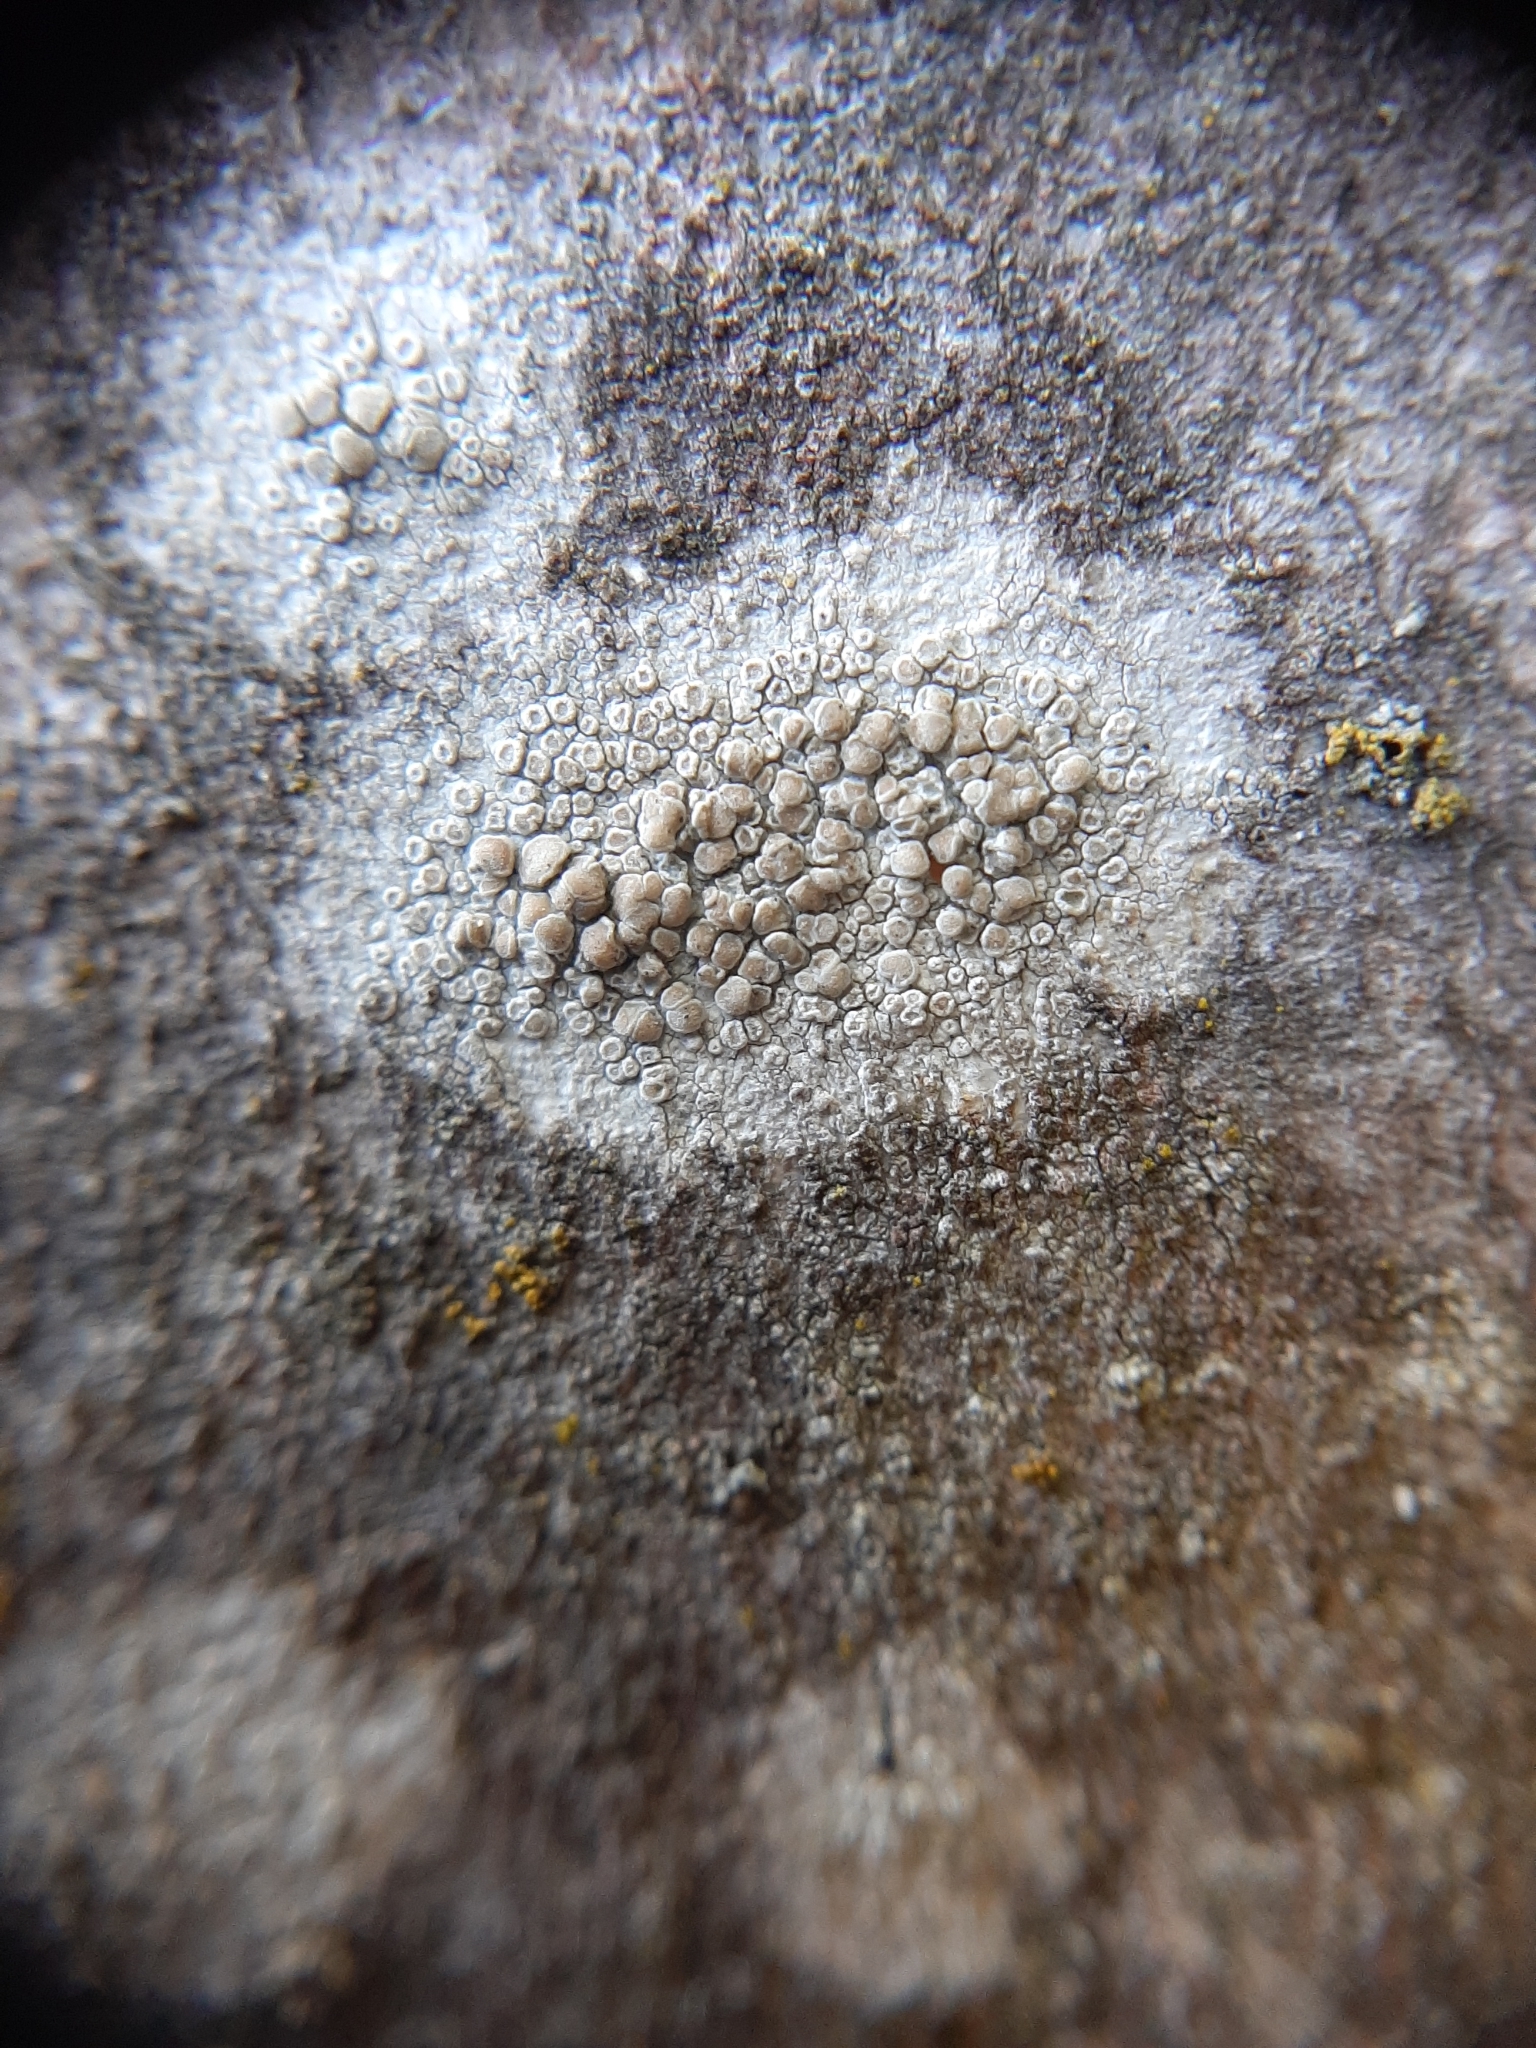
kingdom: Fungi
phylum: Ascomycota
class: Lecanoromycetes
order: Lecanorales
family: Lecanoraceae
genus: Glaucomaria
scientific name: Glaucomaria carpinea
